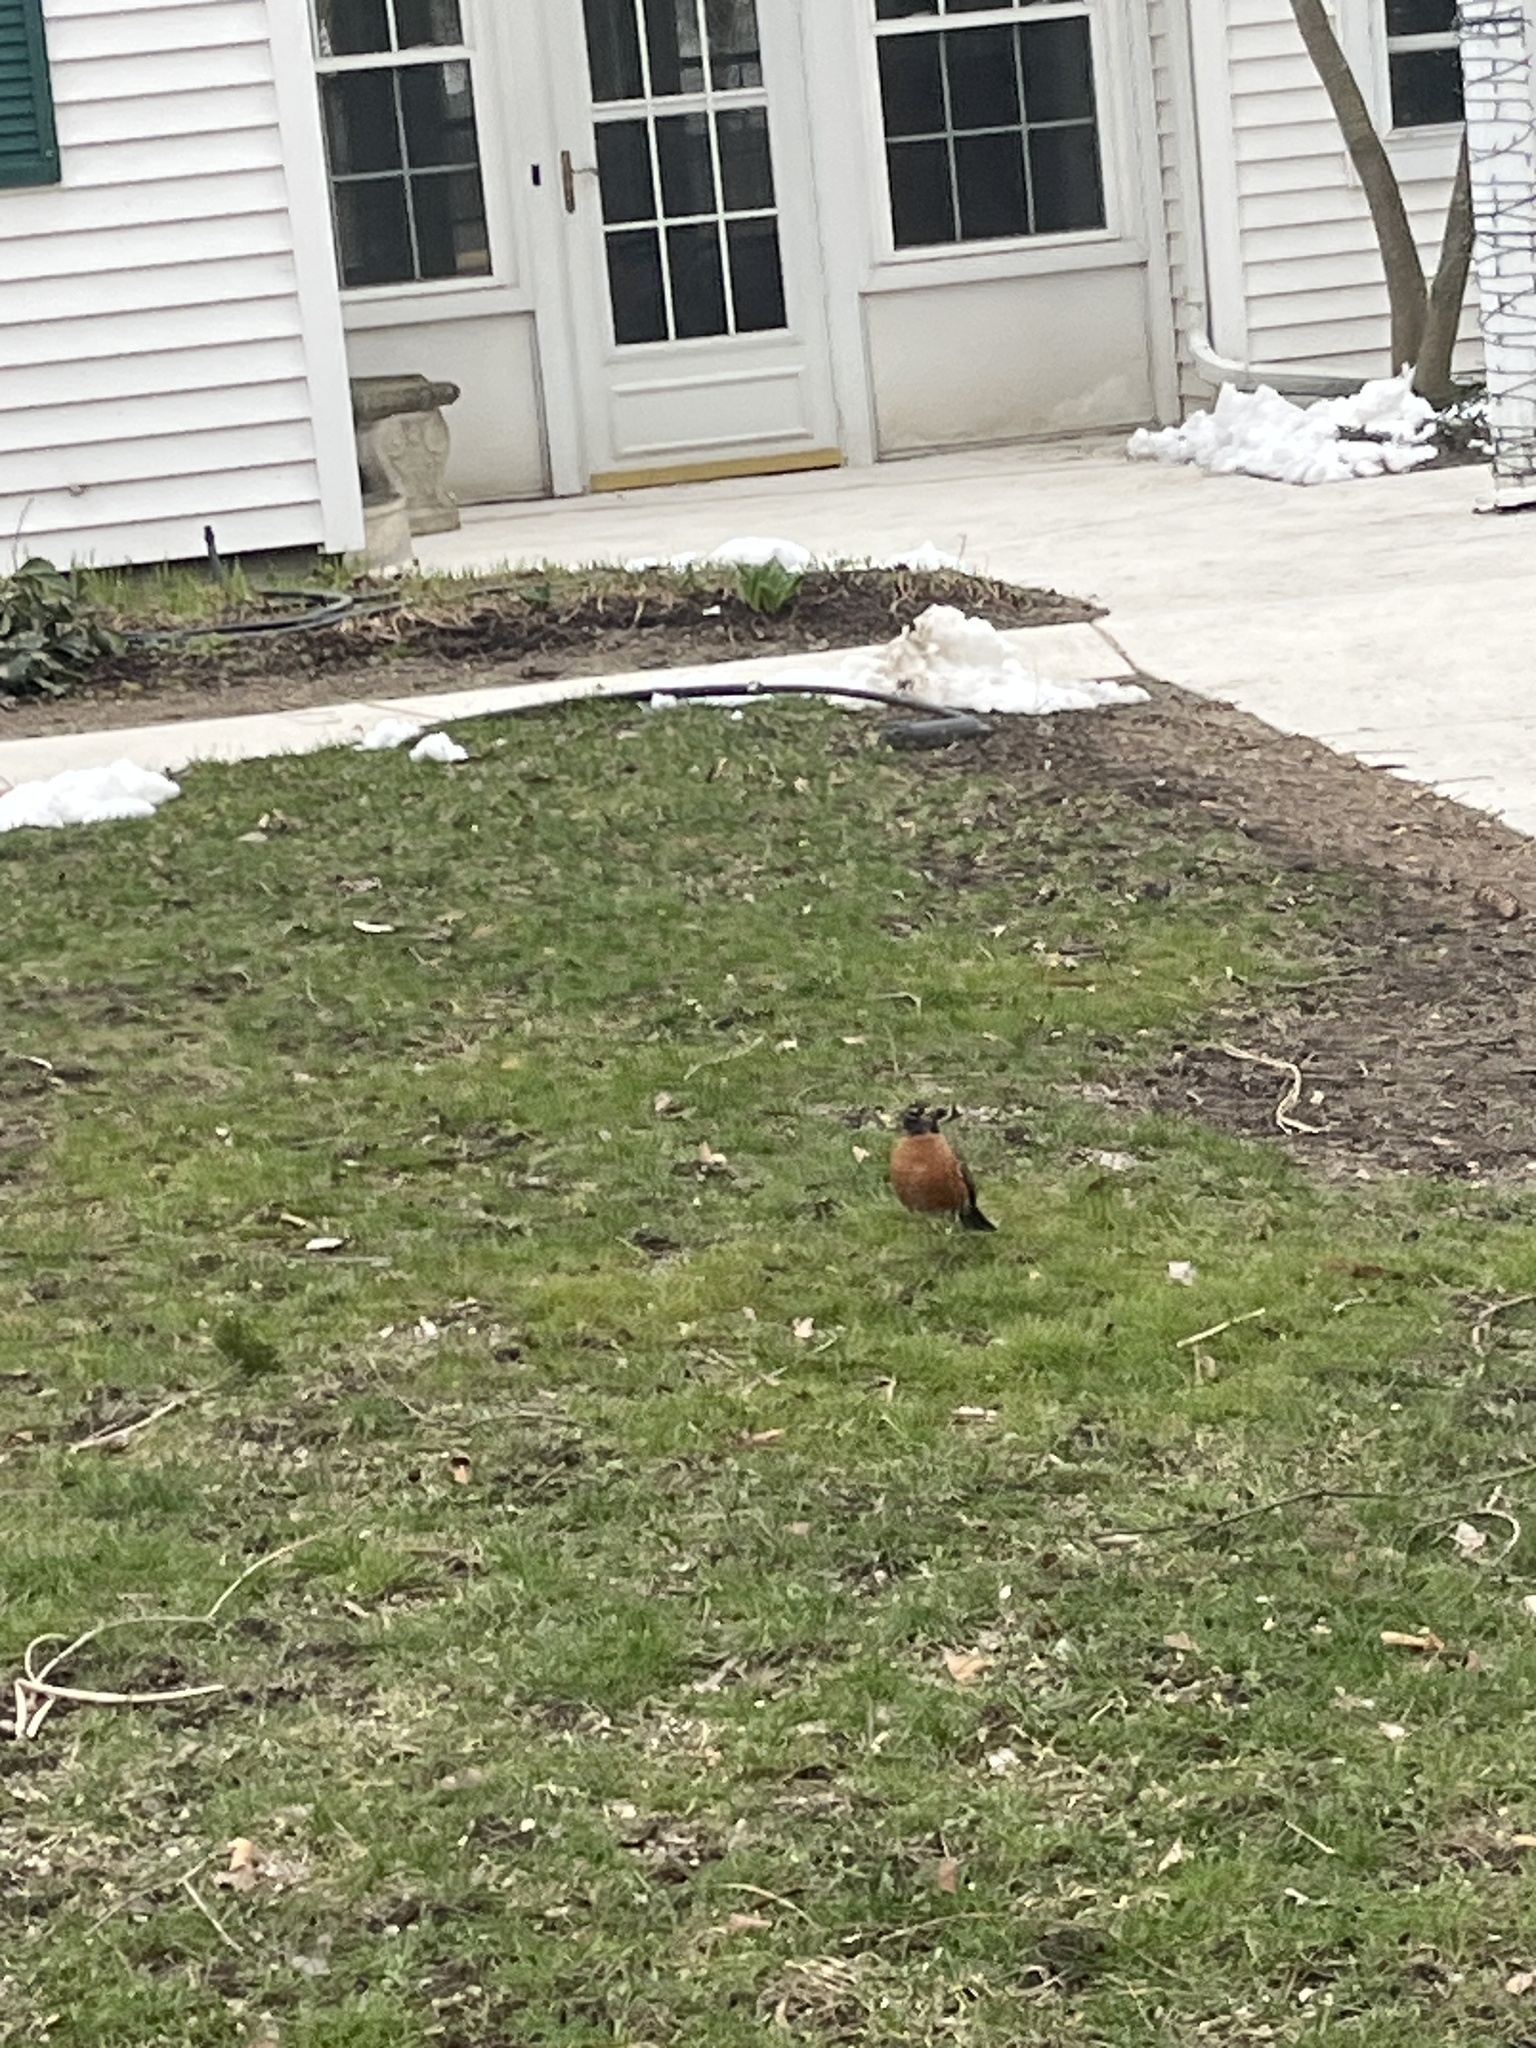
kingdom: Animalia
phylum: Chordata
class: Aves
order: Passeriformes
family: Turdidae
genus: Turdus
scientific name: Turdus migratorius
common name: American robin
